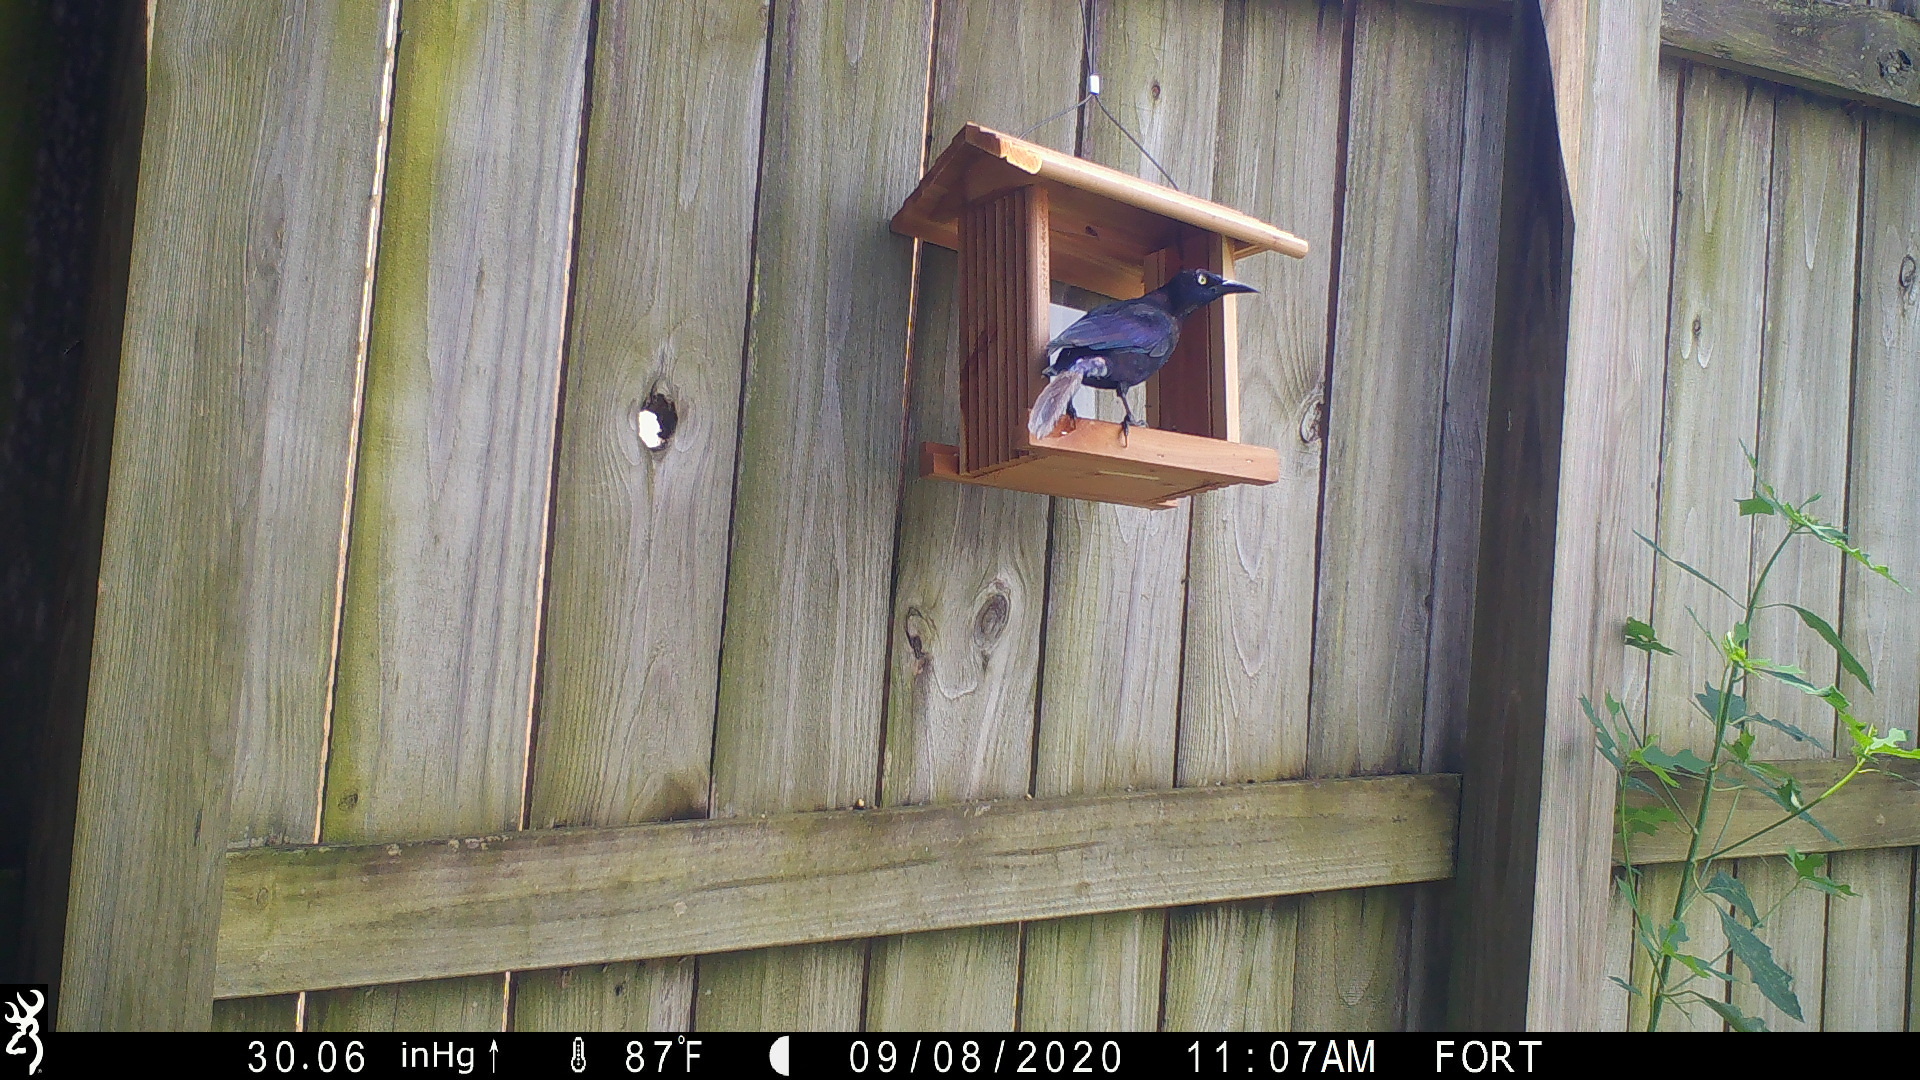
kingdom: Animalia
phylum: Chordata
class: Aves
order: Passeriformes
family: Icteridae
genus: Quiscalus
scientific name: Quiscalus quiscula
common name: Common grackle
